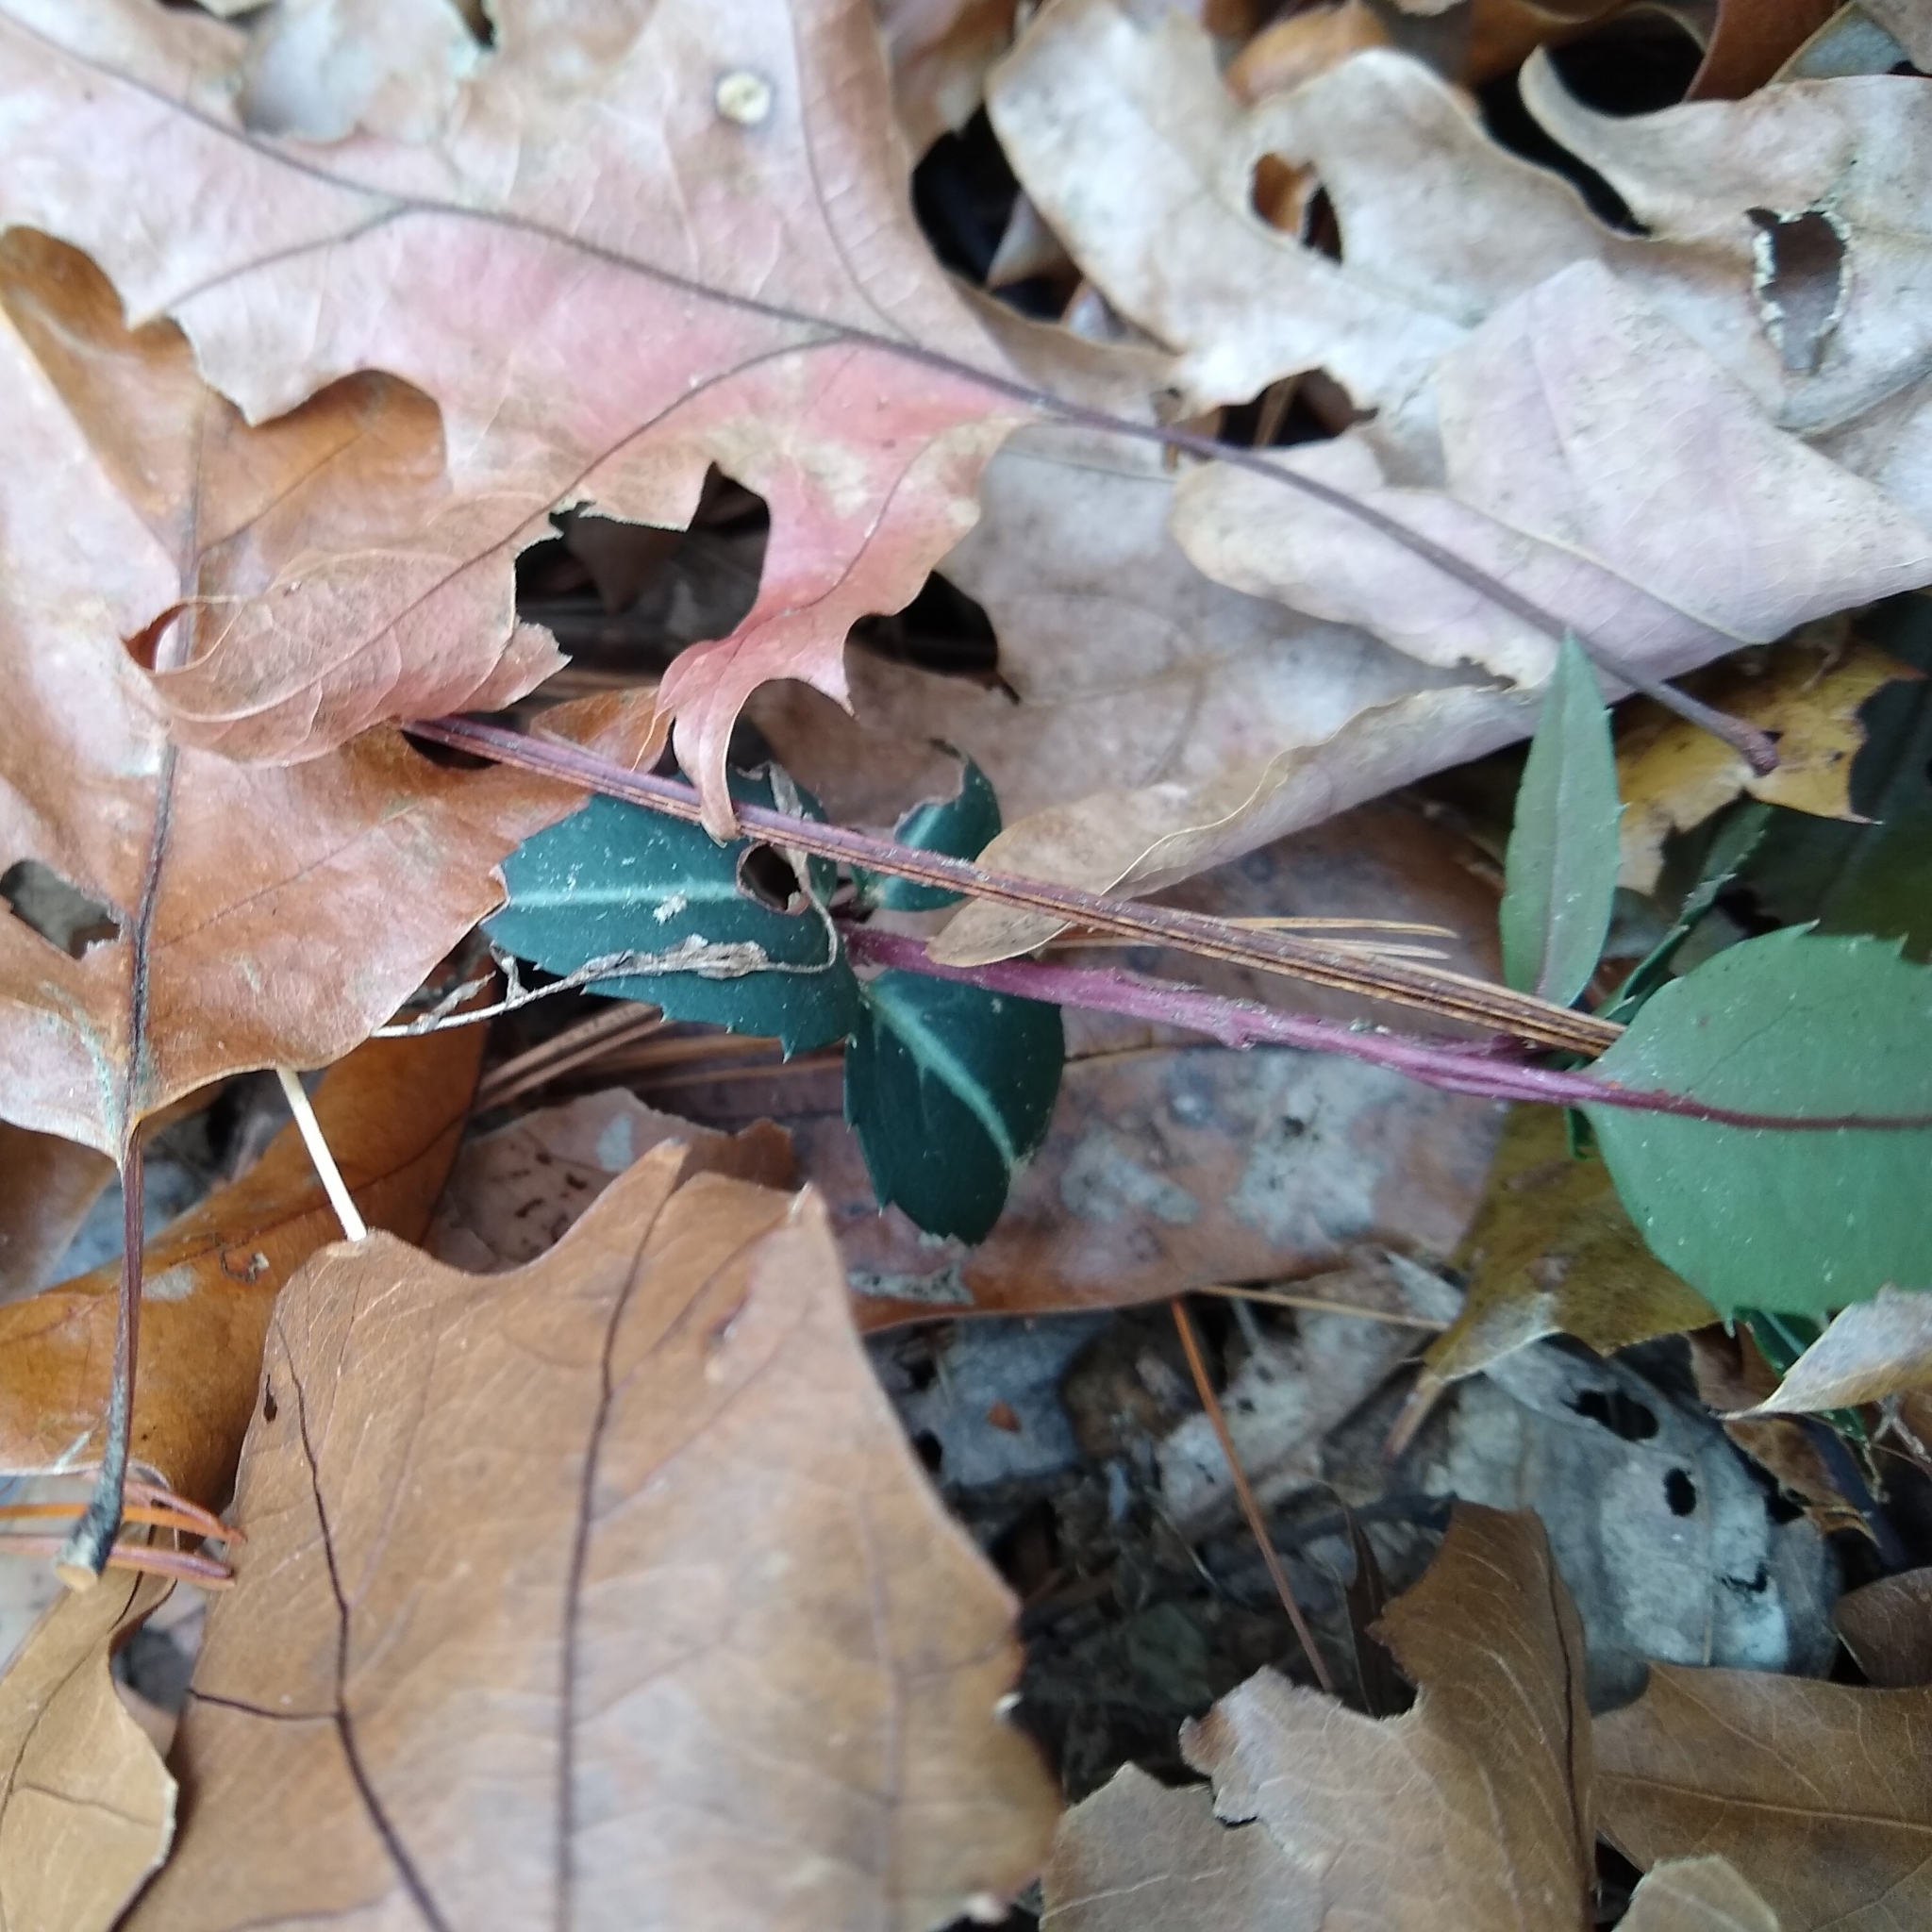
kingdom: Plantae
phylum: Tracheophyta
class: Magnoliopsida
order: Ericales
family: Ericaceae
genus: Chimaphila
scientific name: Chimaphila maculata
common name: Spotted pipsissewa
